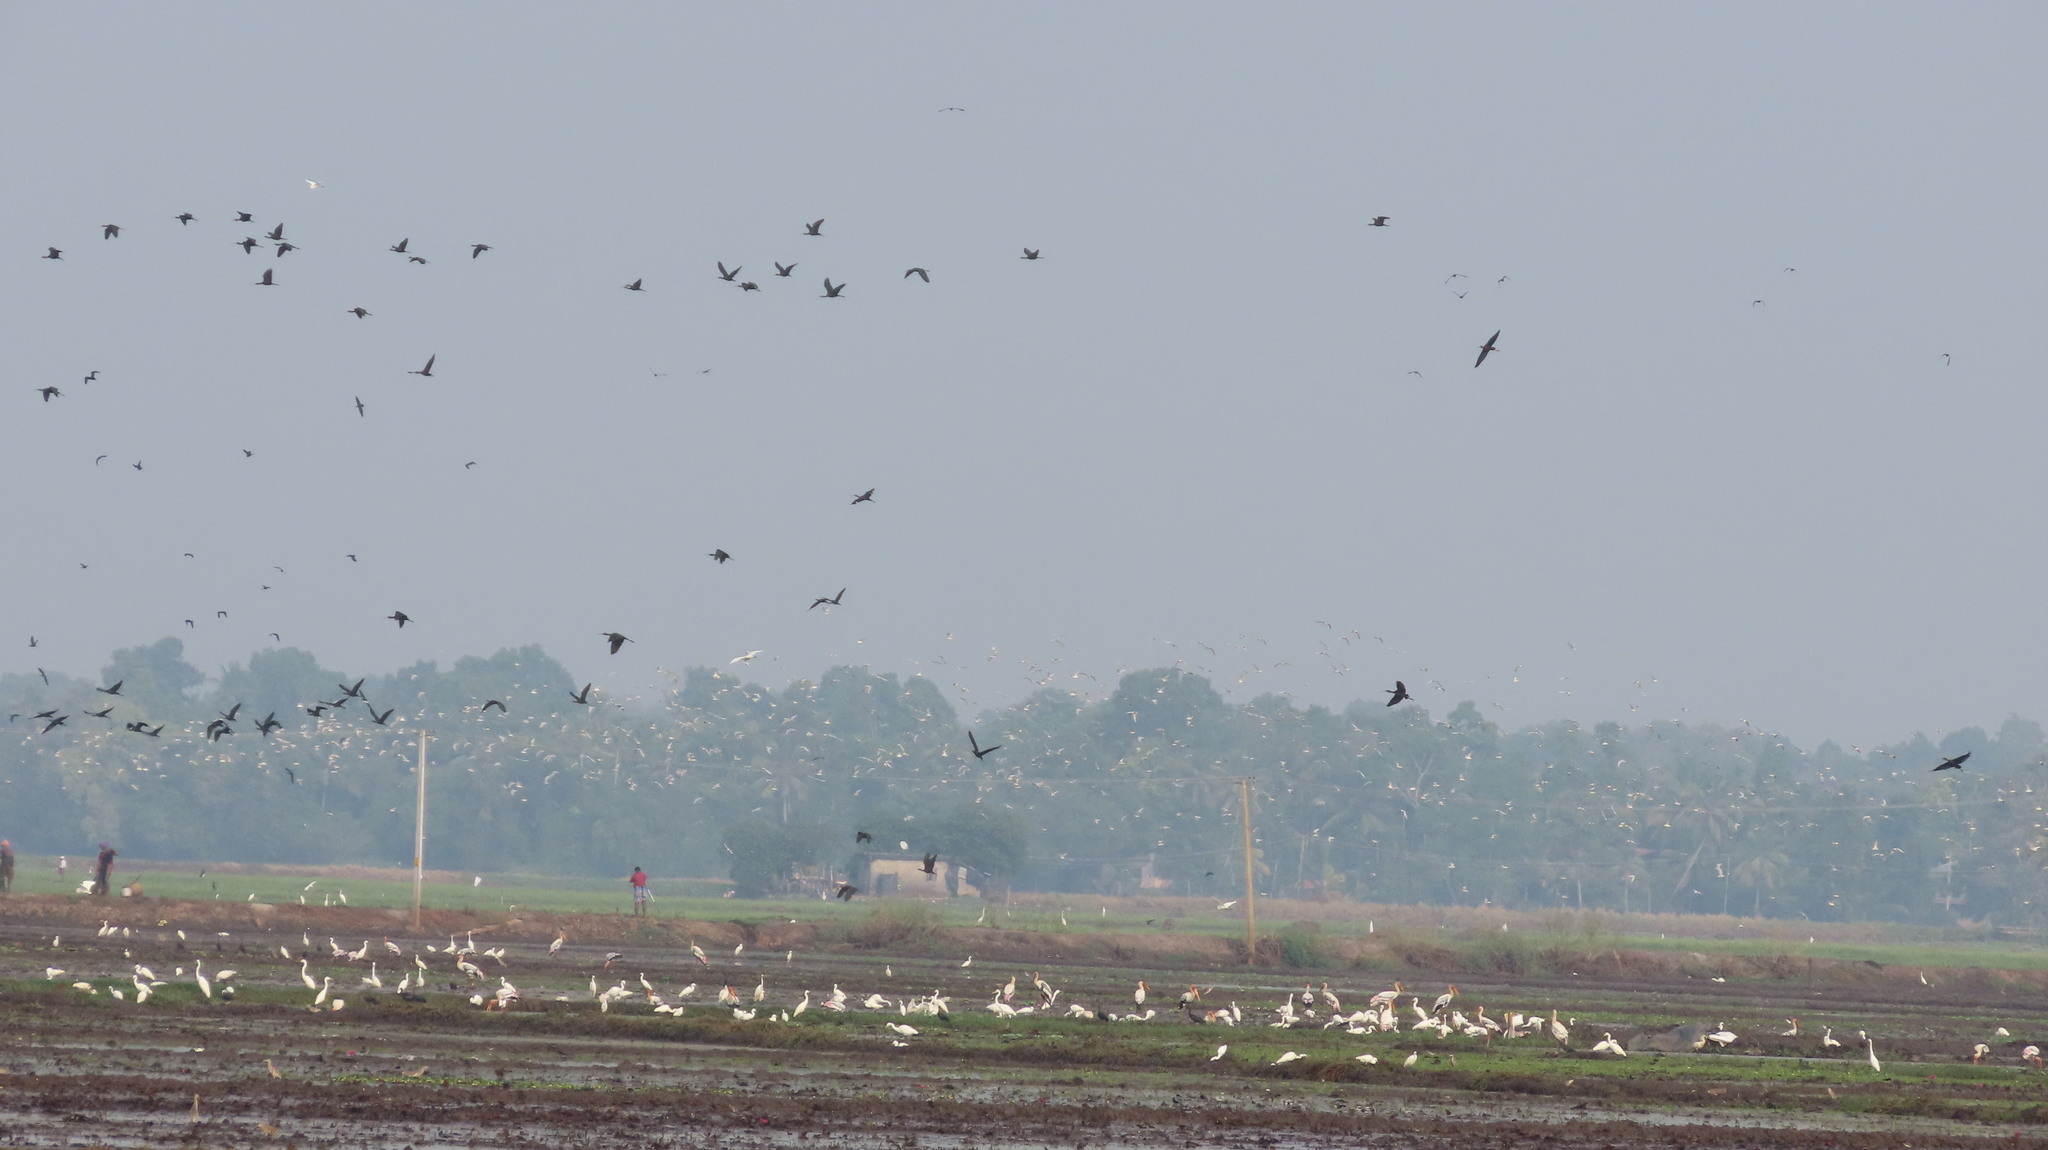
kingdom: Animalia
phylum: Chordata
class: Aves
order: Ciconiiformes
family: Ciconiidae
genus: Mycteria
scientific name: Mycteria leucocephala
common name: Painted stork
